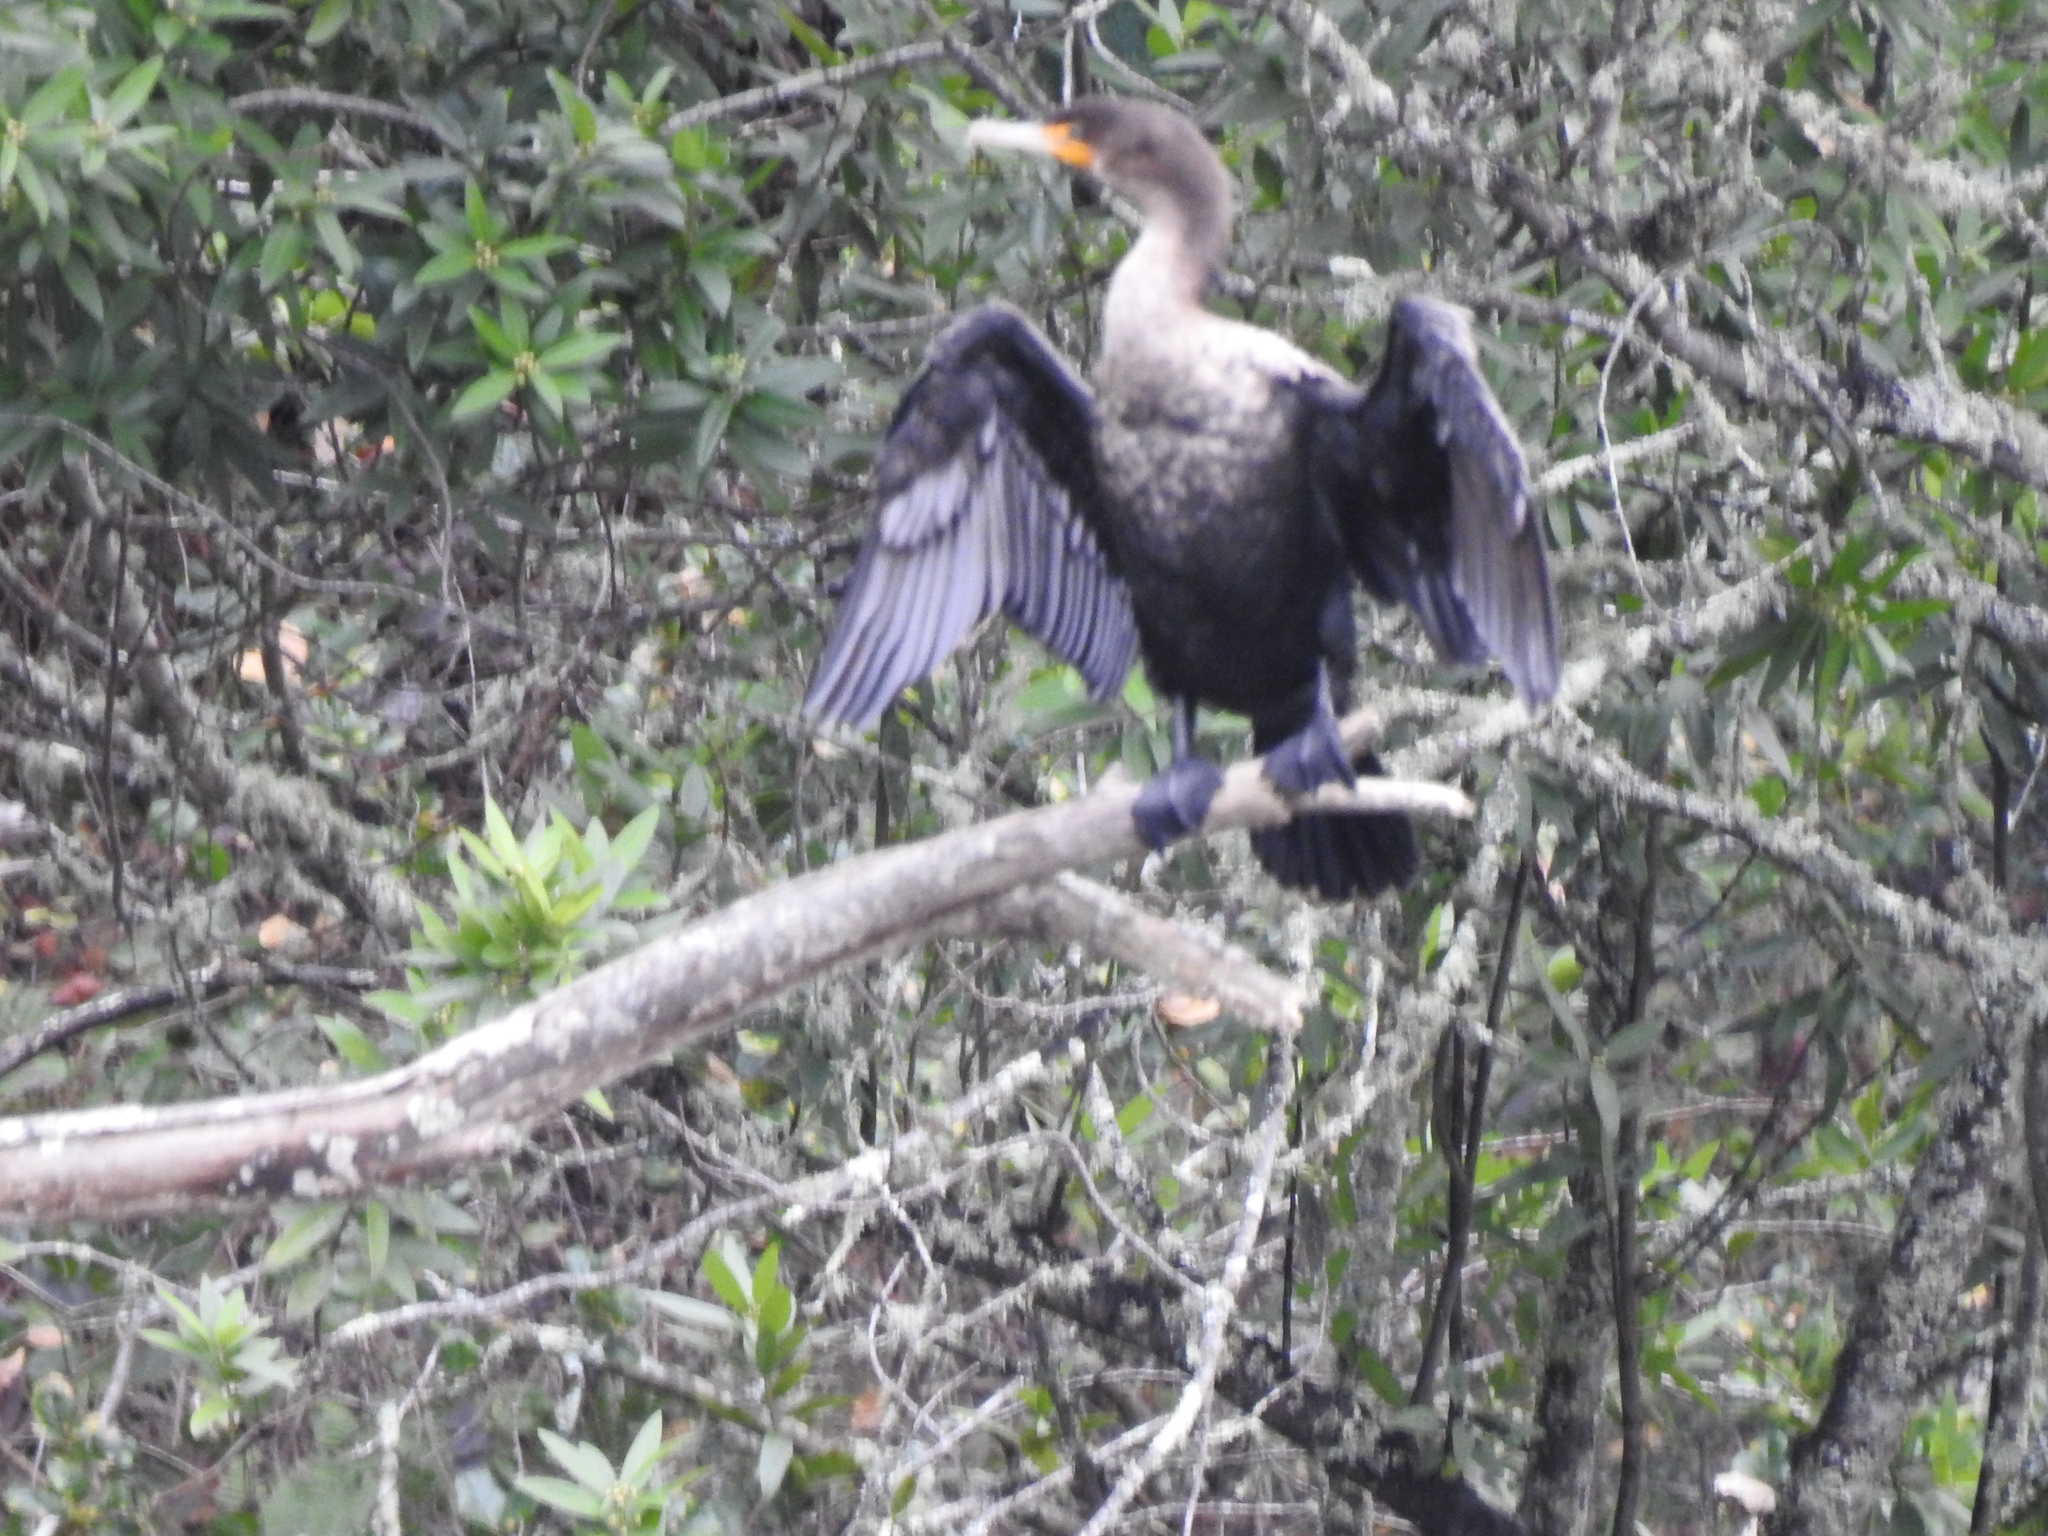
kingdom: Animalia
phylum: Chordata
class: Aves
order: Suliformes
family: Phalacrocoracidae
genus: Phalacrocorax
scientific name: Phalacrocorax auritus
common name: Double-crested cormorant
